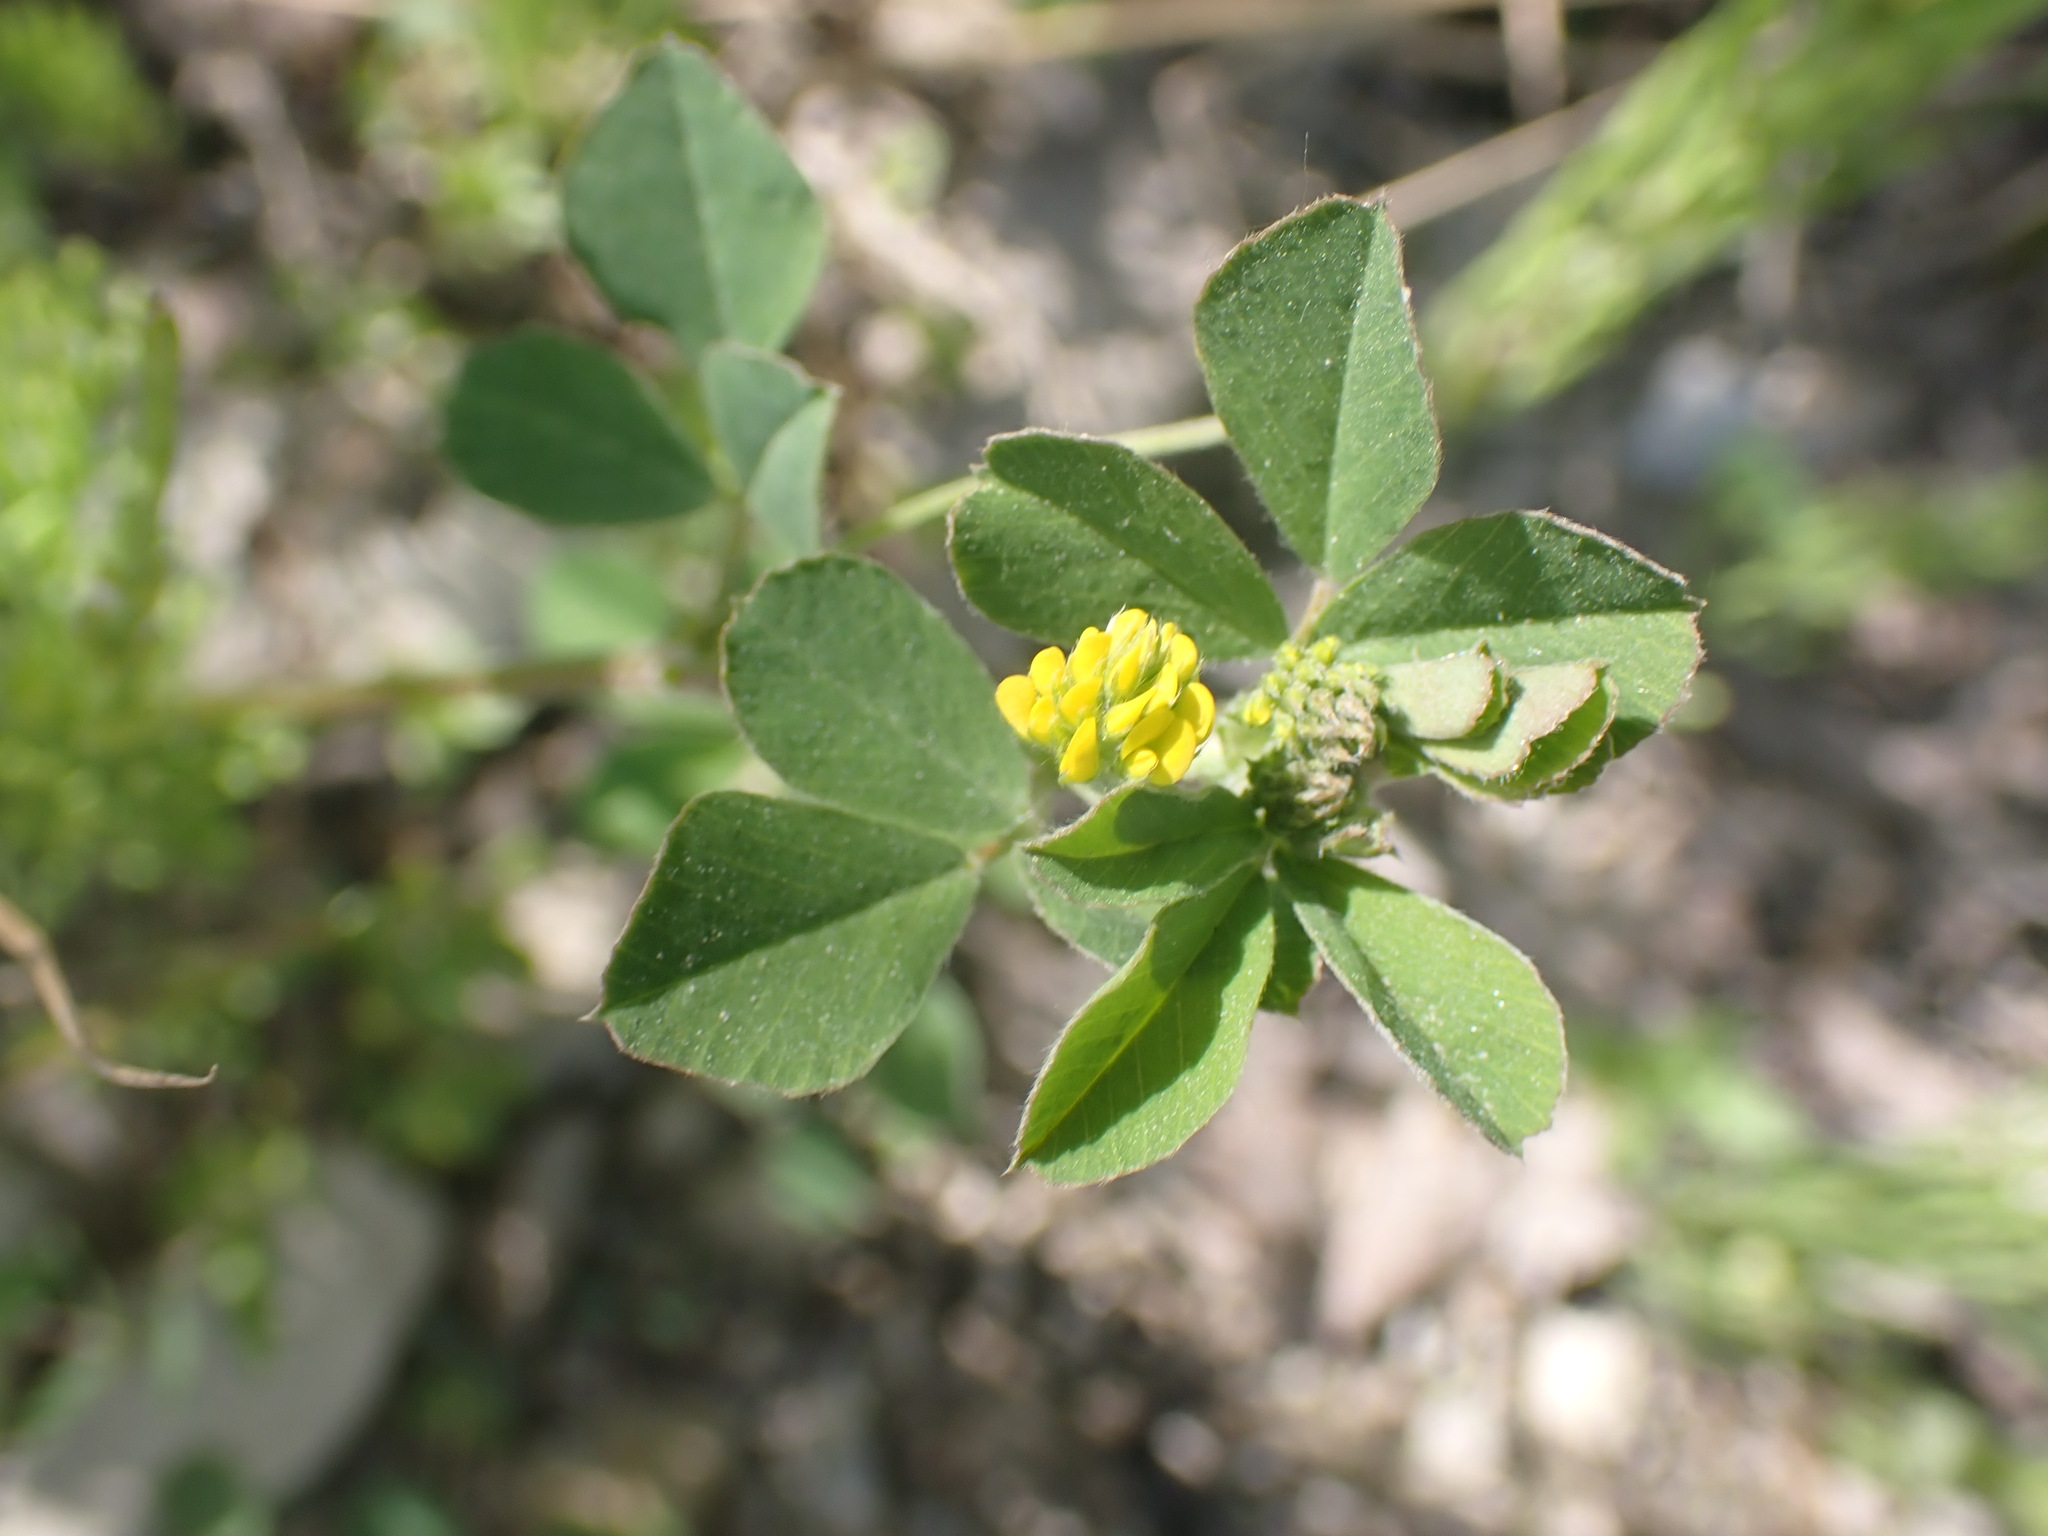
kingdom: Plantae
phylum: Tracheophyta
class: Magnoliopsida
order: Fabales
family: Fabaceae
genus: Medicago
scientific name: Medicago lupulina
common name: Black medick
